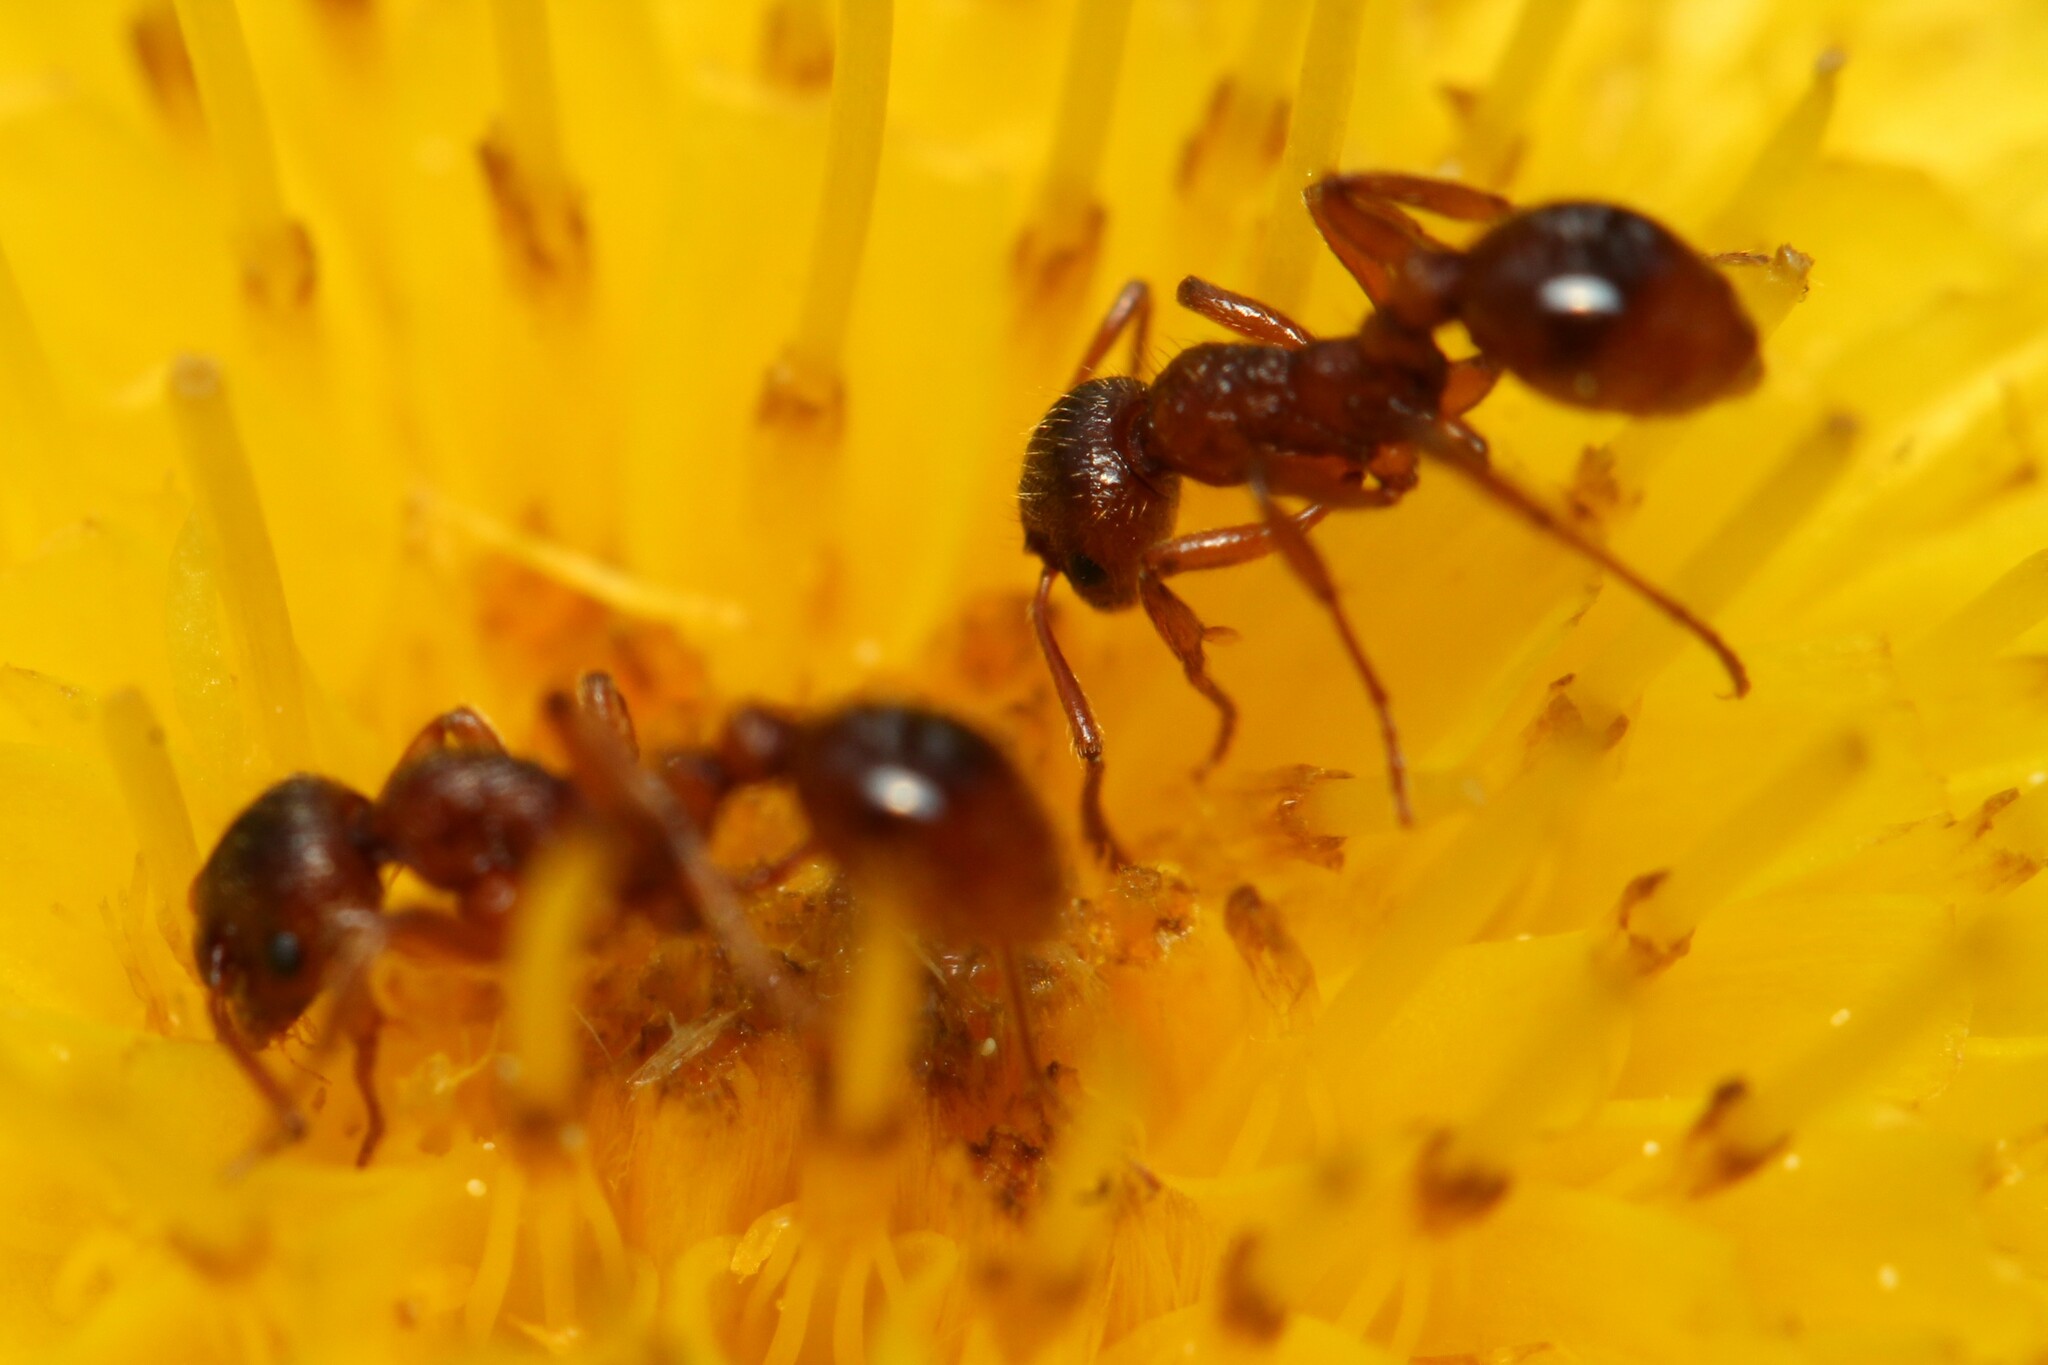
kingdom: Animalia
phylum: Arthropoda
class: Insecta
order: Hymenoptera
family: Formicidae
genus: Myrmica
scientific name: Myrmica rubra
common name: European fire ant
